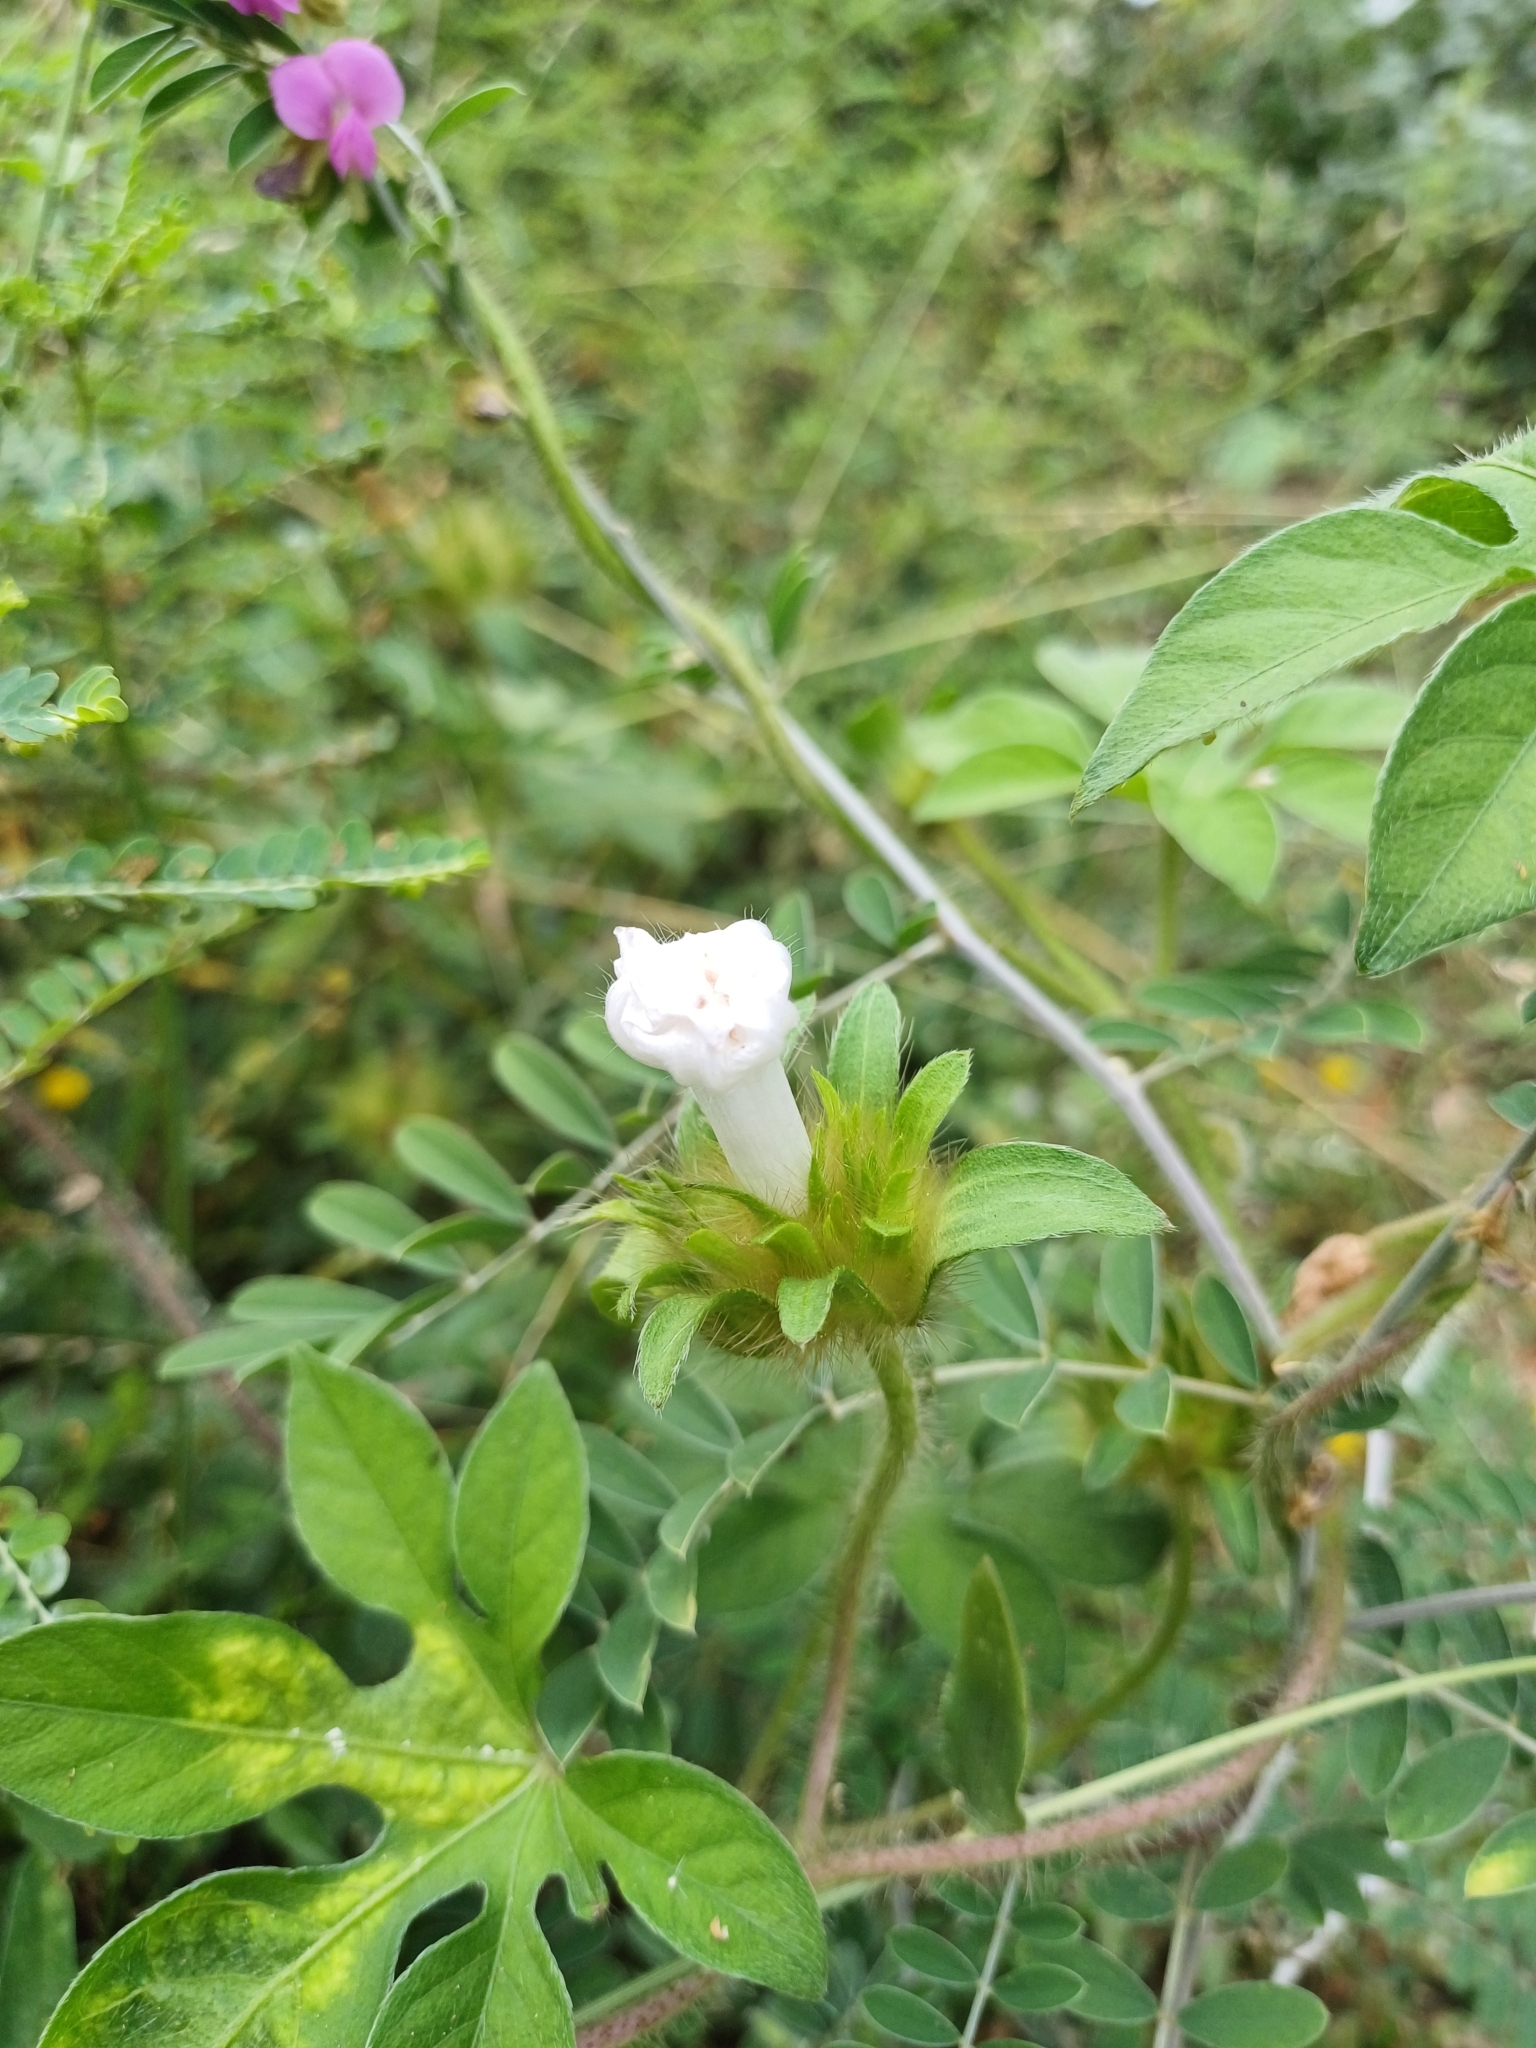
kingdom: Plantae
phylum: Tracheophyta
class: Magnoliopsida
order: Solanales
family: Convolvulaceae
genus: Ipomoea
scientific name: Ipomoea pes-tigridis
